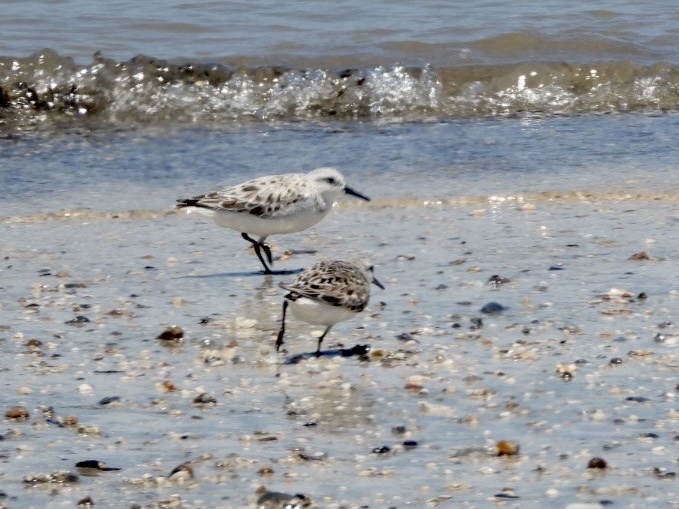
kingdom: Animalia
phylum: Chordata
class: Aves
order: Charadriiformes
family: Scolopacidae
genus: Calidris
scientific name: Calidris alba
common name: Sanderling
